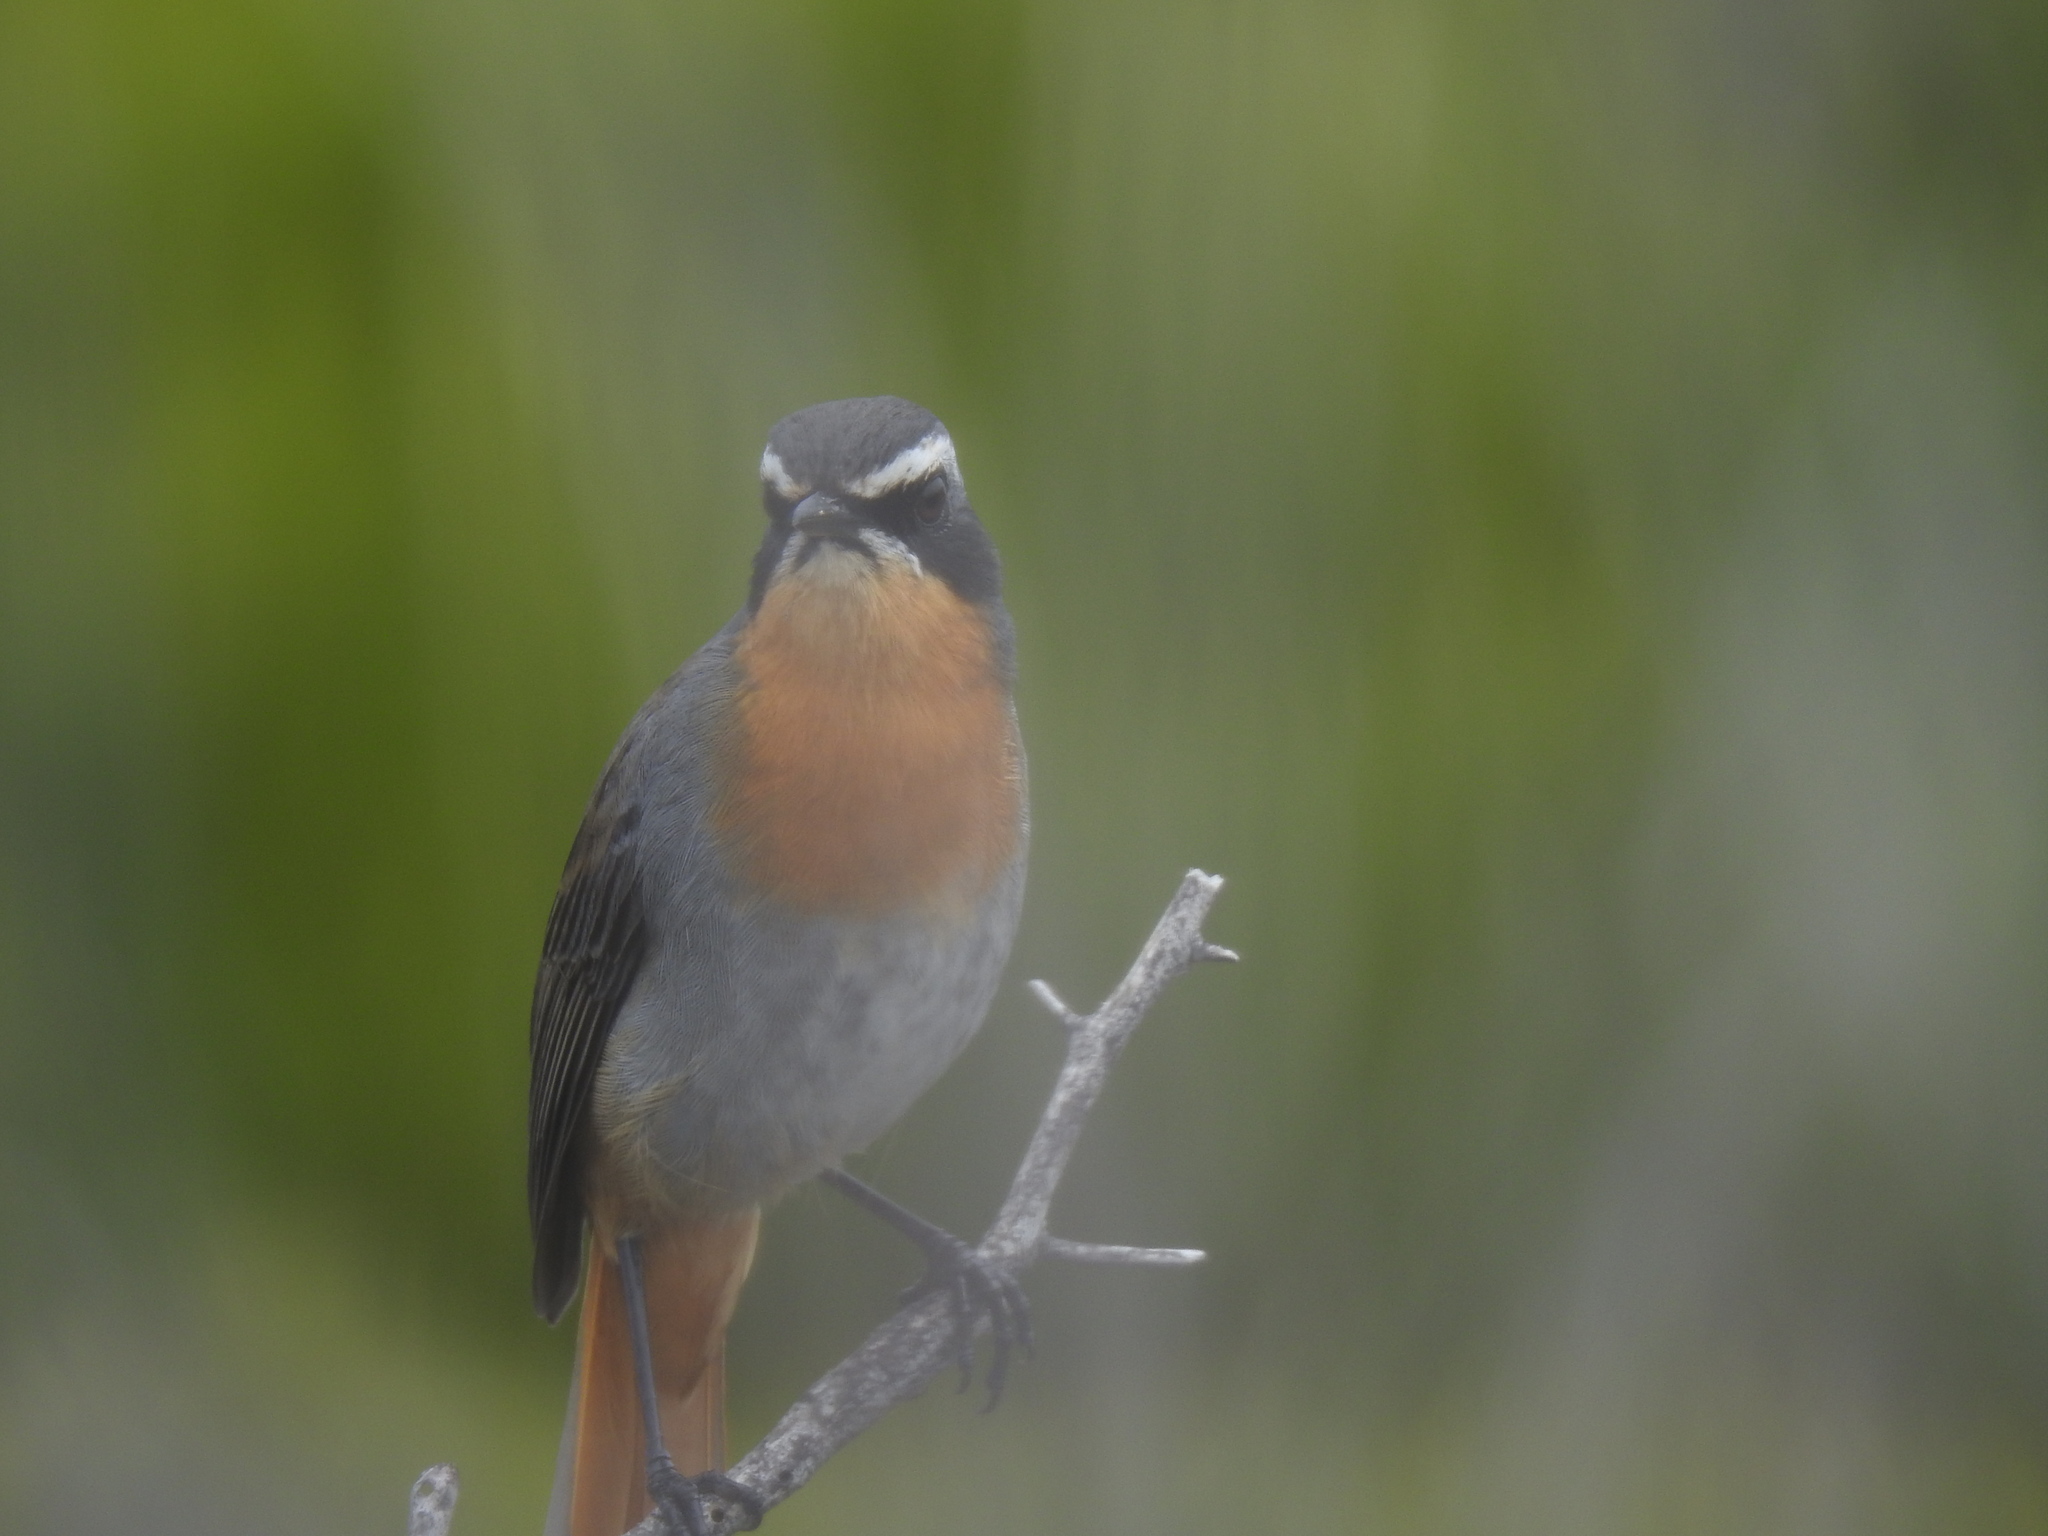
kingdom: Animalia
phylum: Chordata
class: Aves
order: Passeriformes
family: Muscicapidae
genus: Cossypha
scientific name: Cossypha caffra
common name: Cape robin-chat
